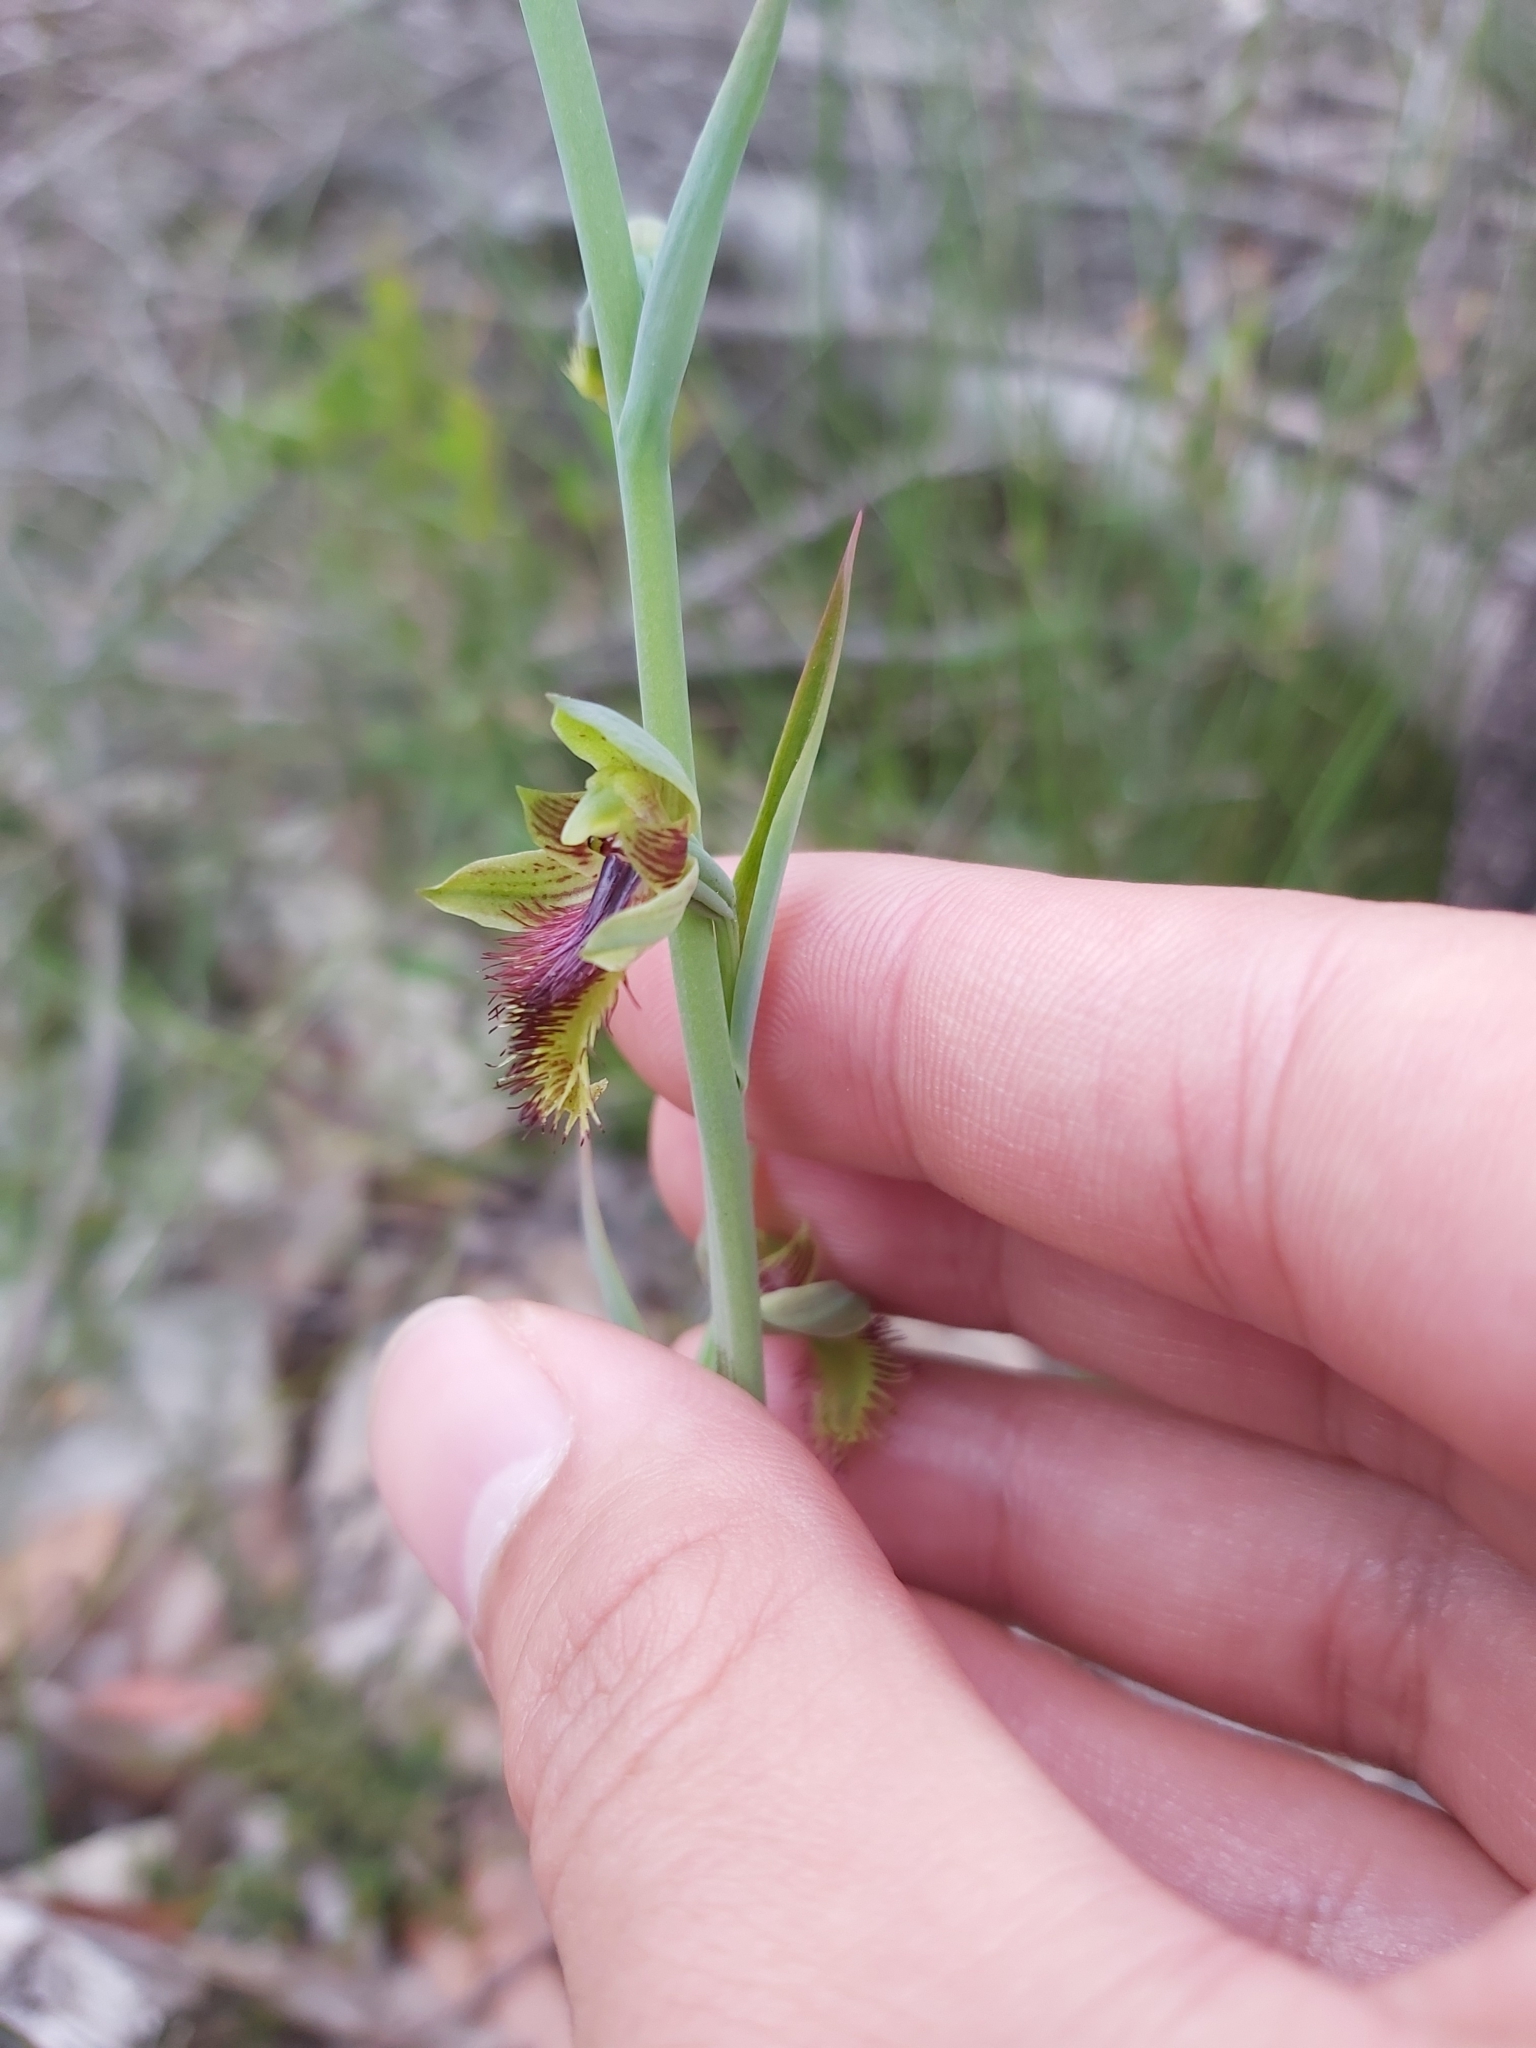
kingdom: Plantae
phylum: Tracheophyta
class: Liliopsida
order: Asparagales
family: Orchidaceae
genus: Calochilus
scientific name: Calochilus campestris
